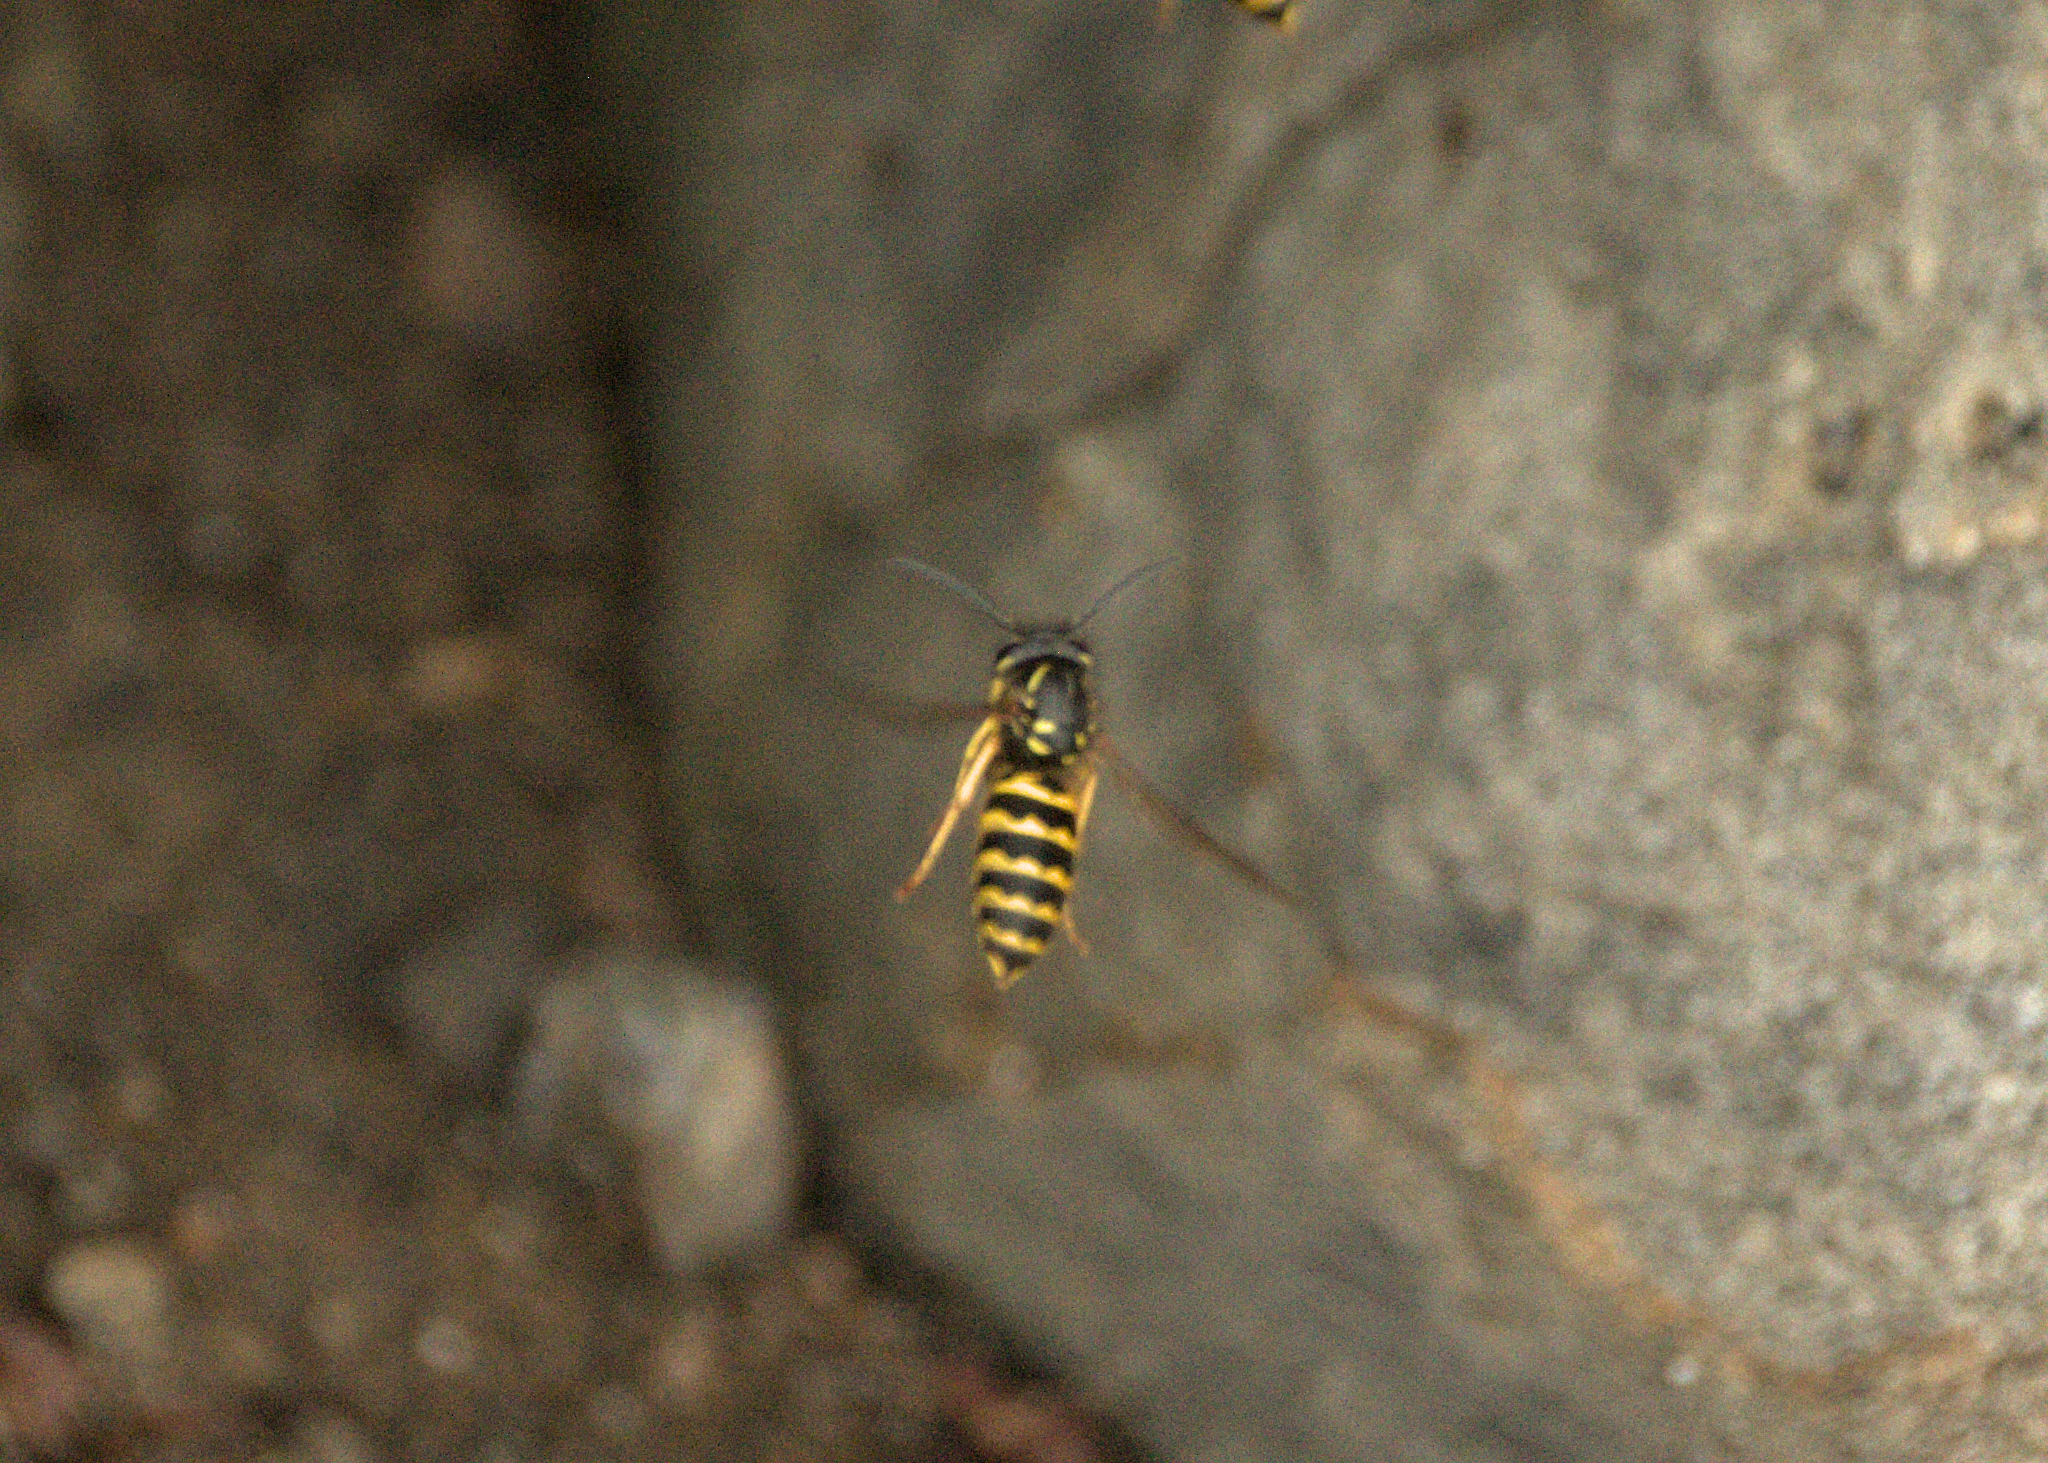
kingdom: Animalia
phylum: Arthropoda
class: Insecta
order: Hymenoptera
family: Vespidae
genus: Vespula
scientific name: Vespula alascensis
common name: Alaska yellowjacket
